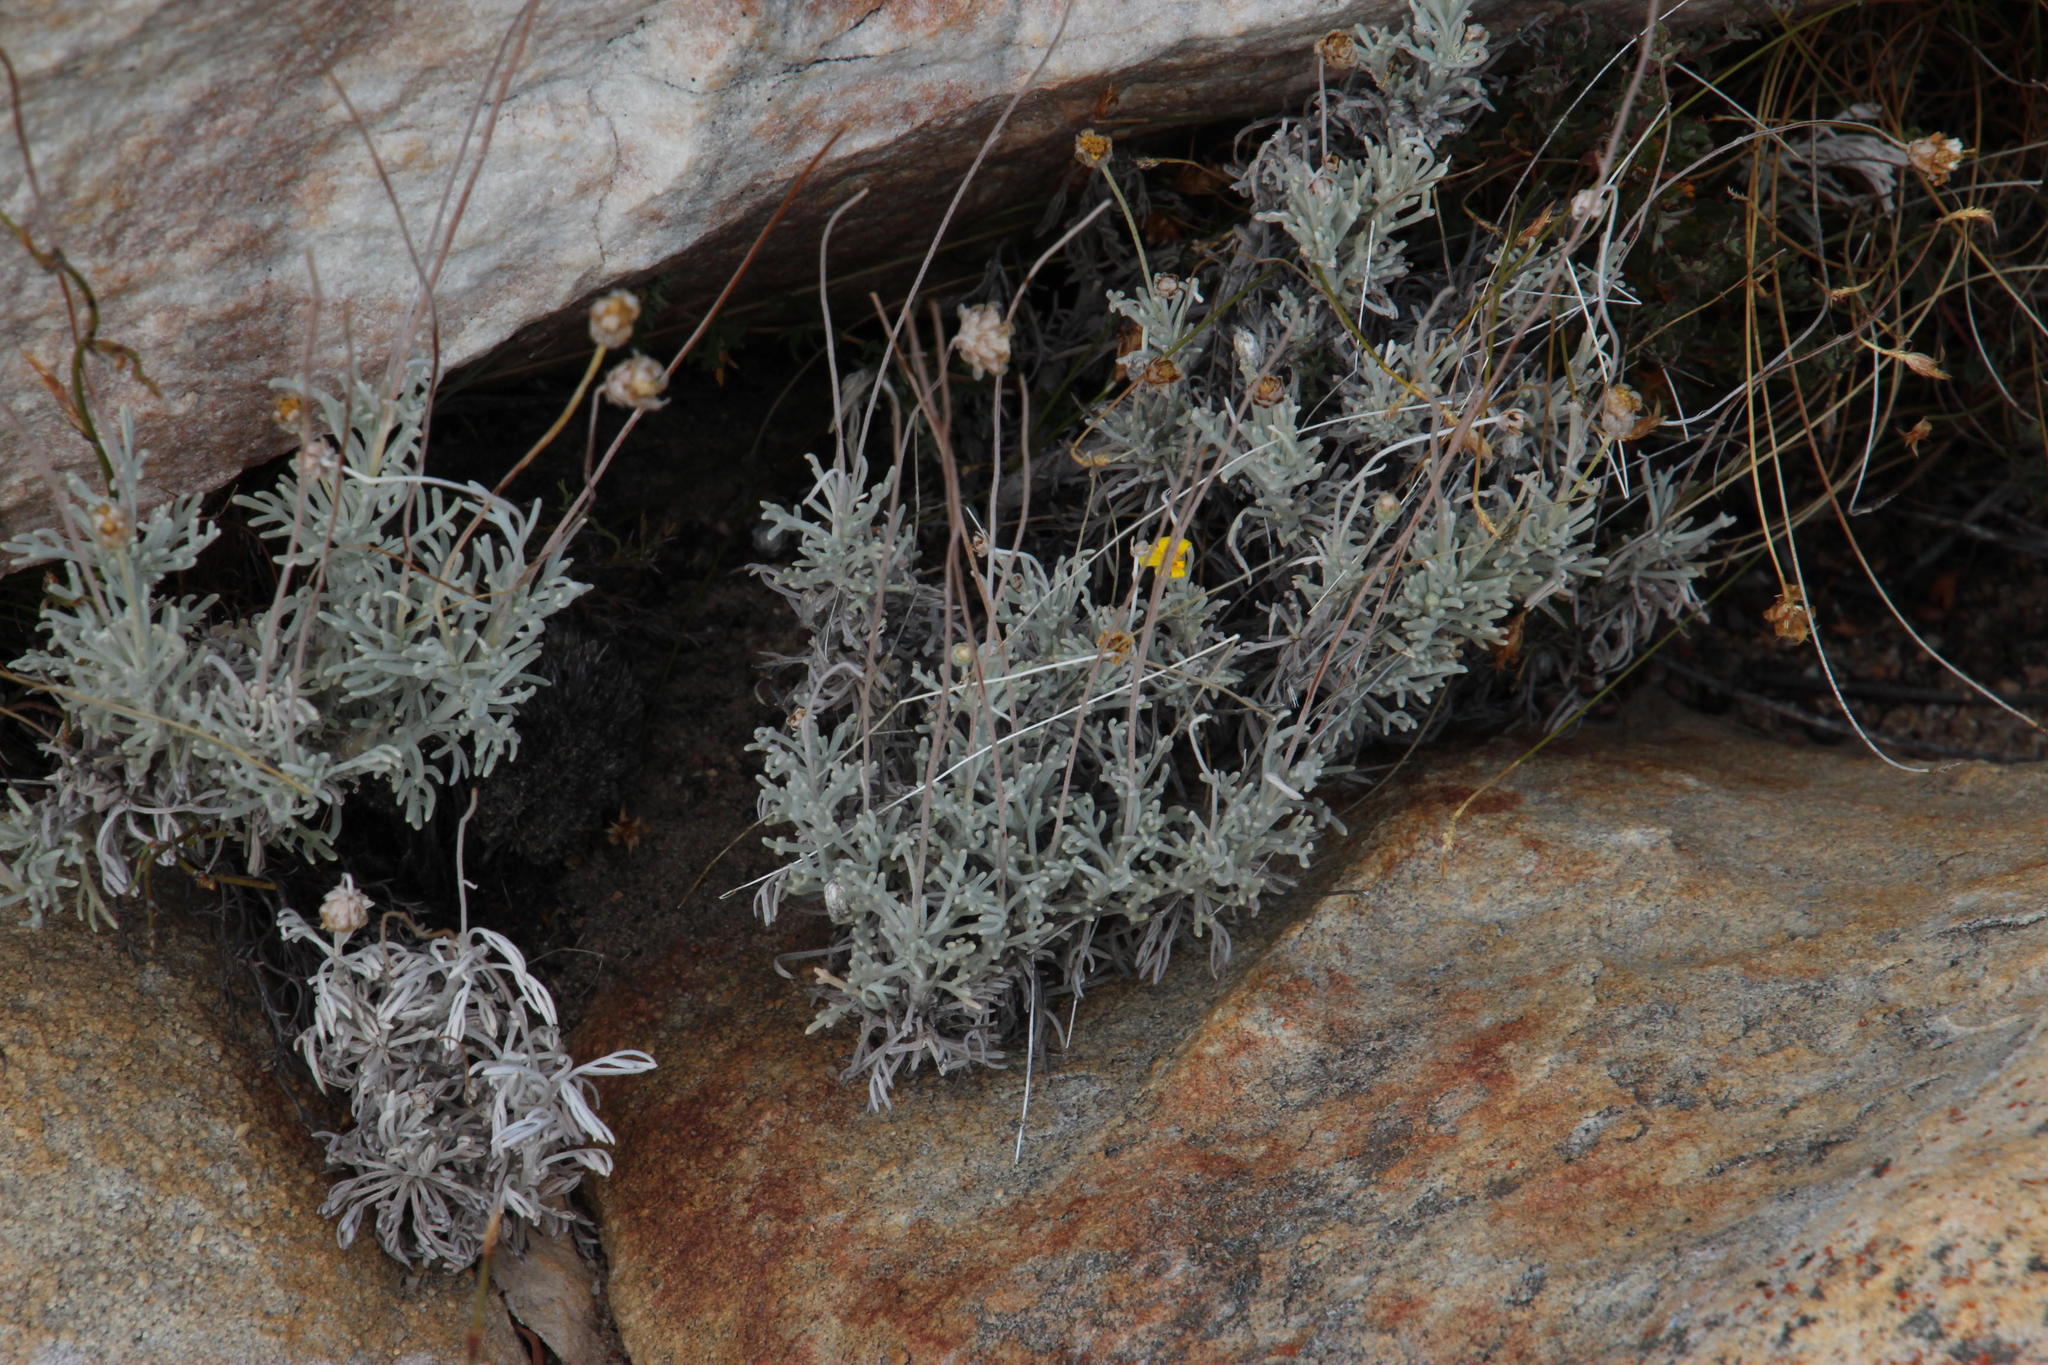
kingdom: Plantae
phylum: Tracheophyta
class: Magnoliopsida
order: Asterales
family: Asteraceae
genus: Ursinia
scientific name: Ursinia sericea
